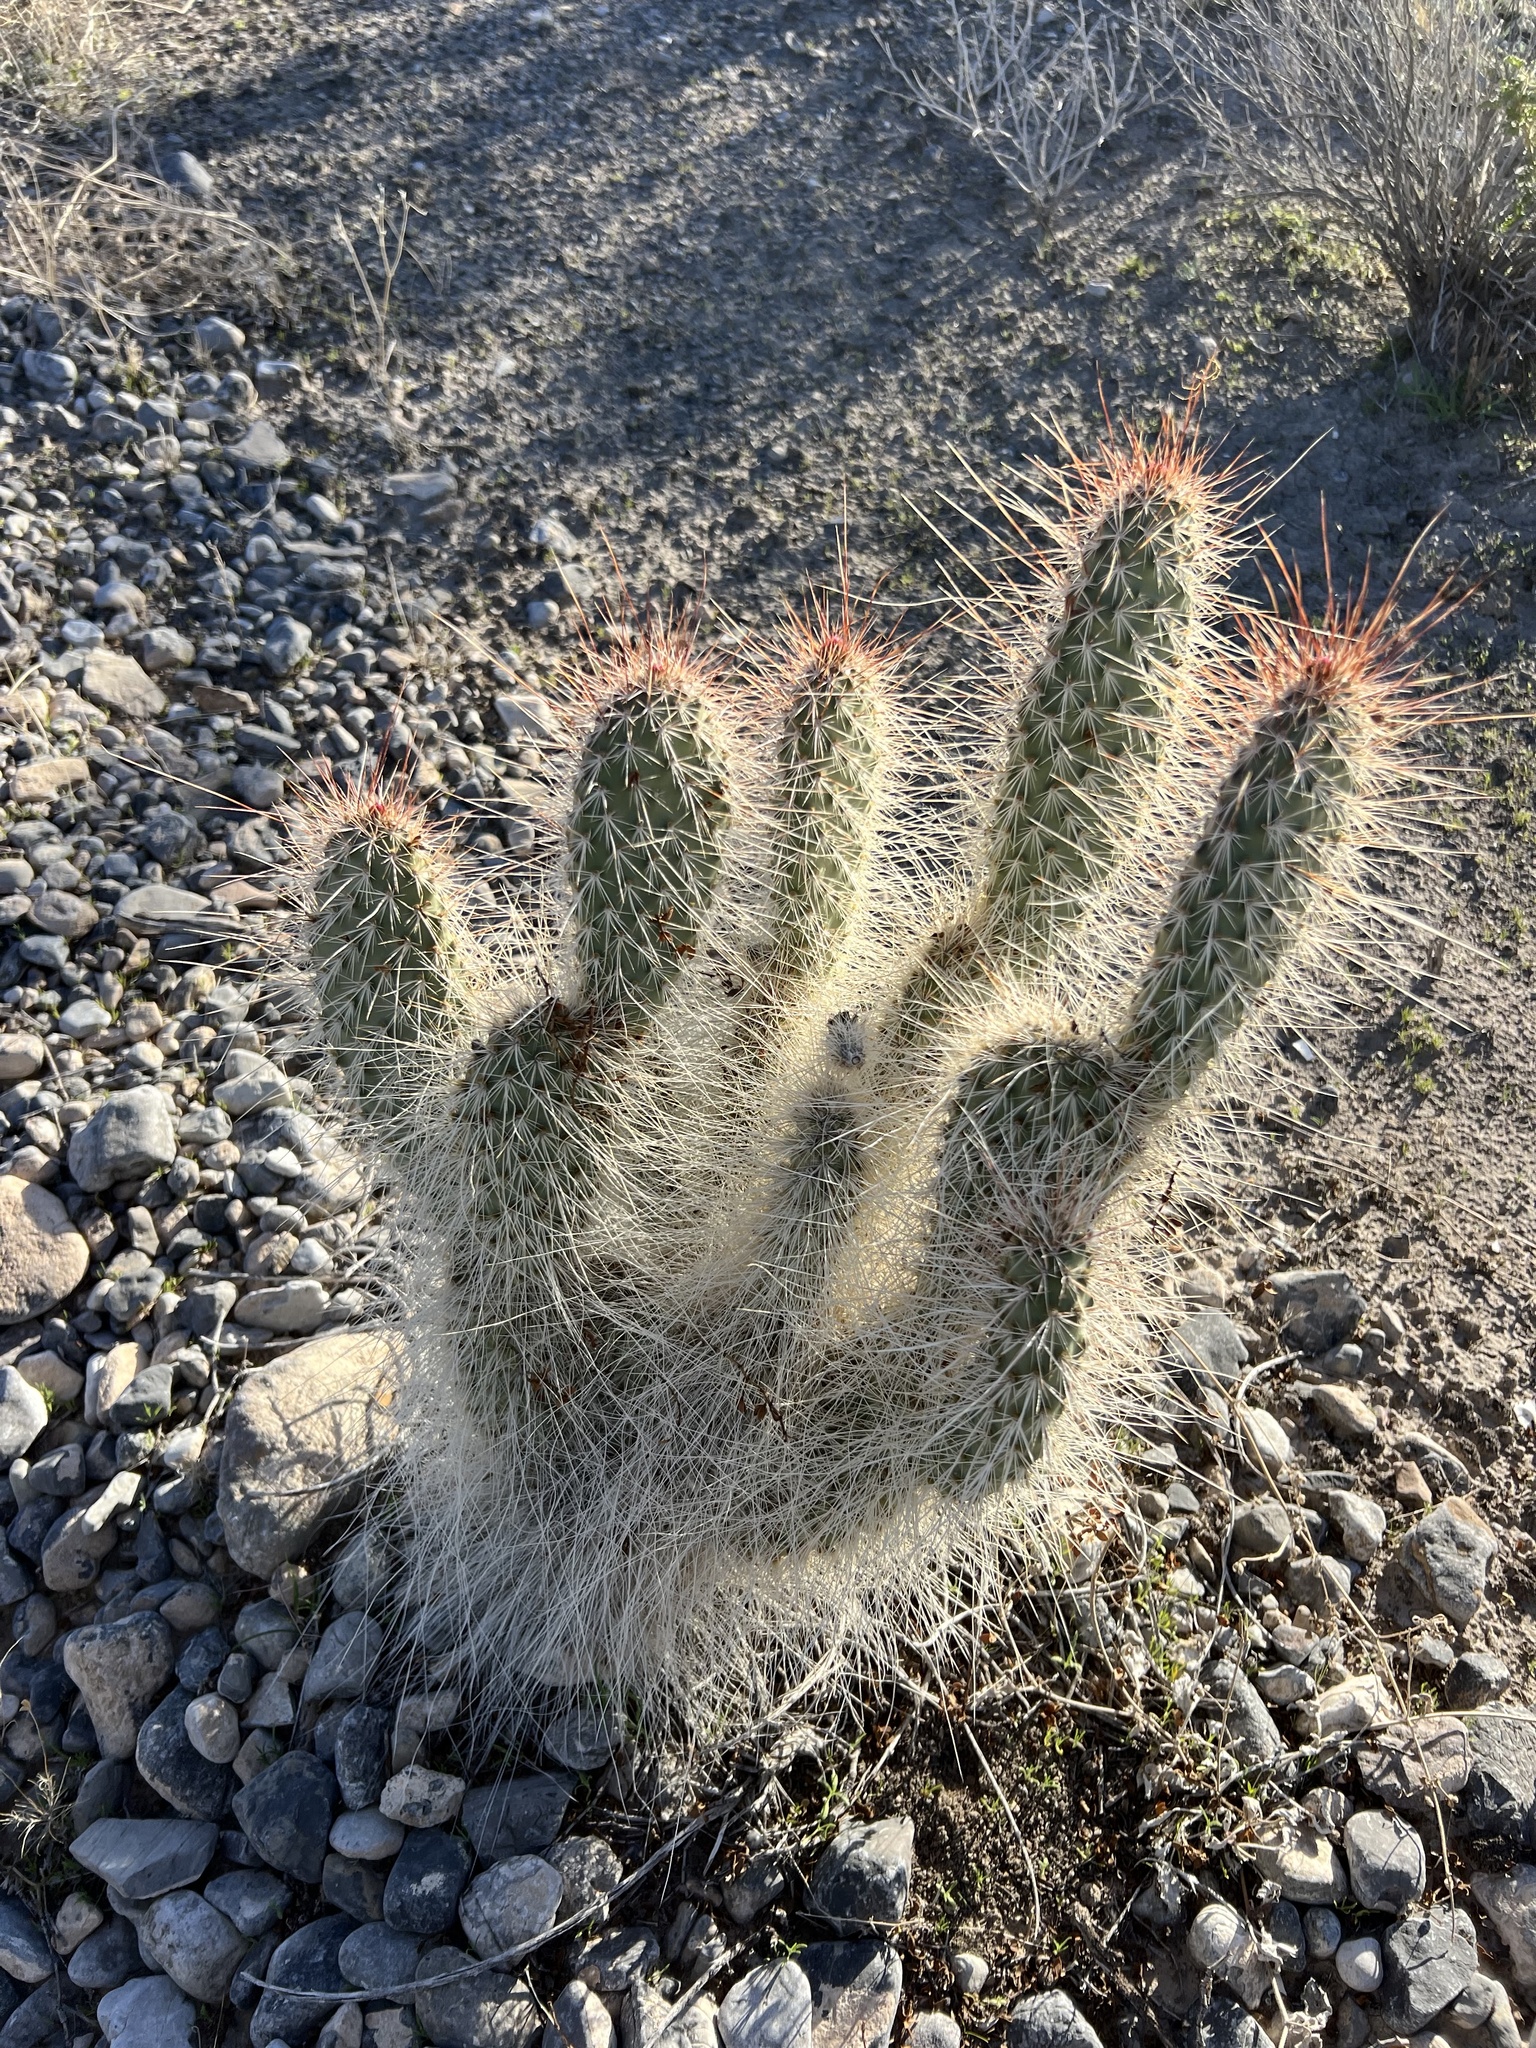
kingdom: Plantae
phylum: Tracheophyta
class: Magnoliopsida
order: Caryophyllales
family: Cactaceae
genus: Opuntia
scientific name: Opuntia polyacantha
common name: Plains prickly-pear
